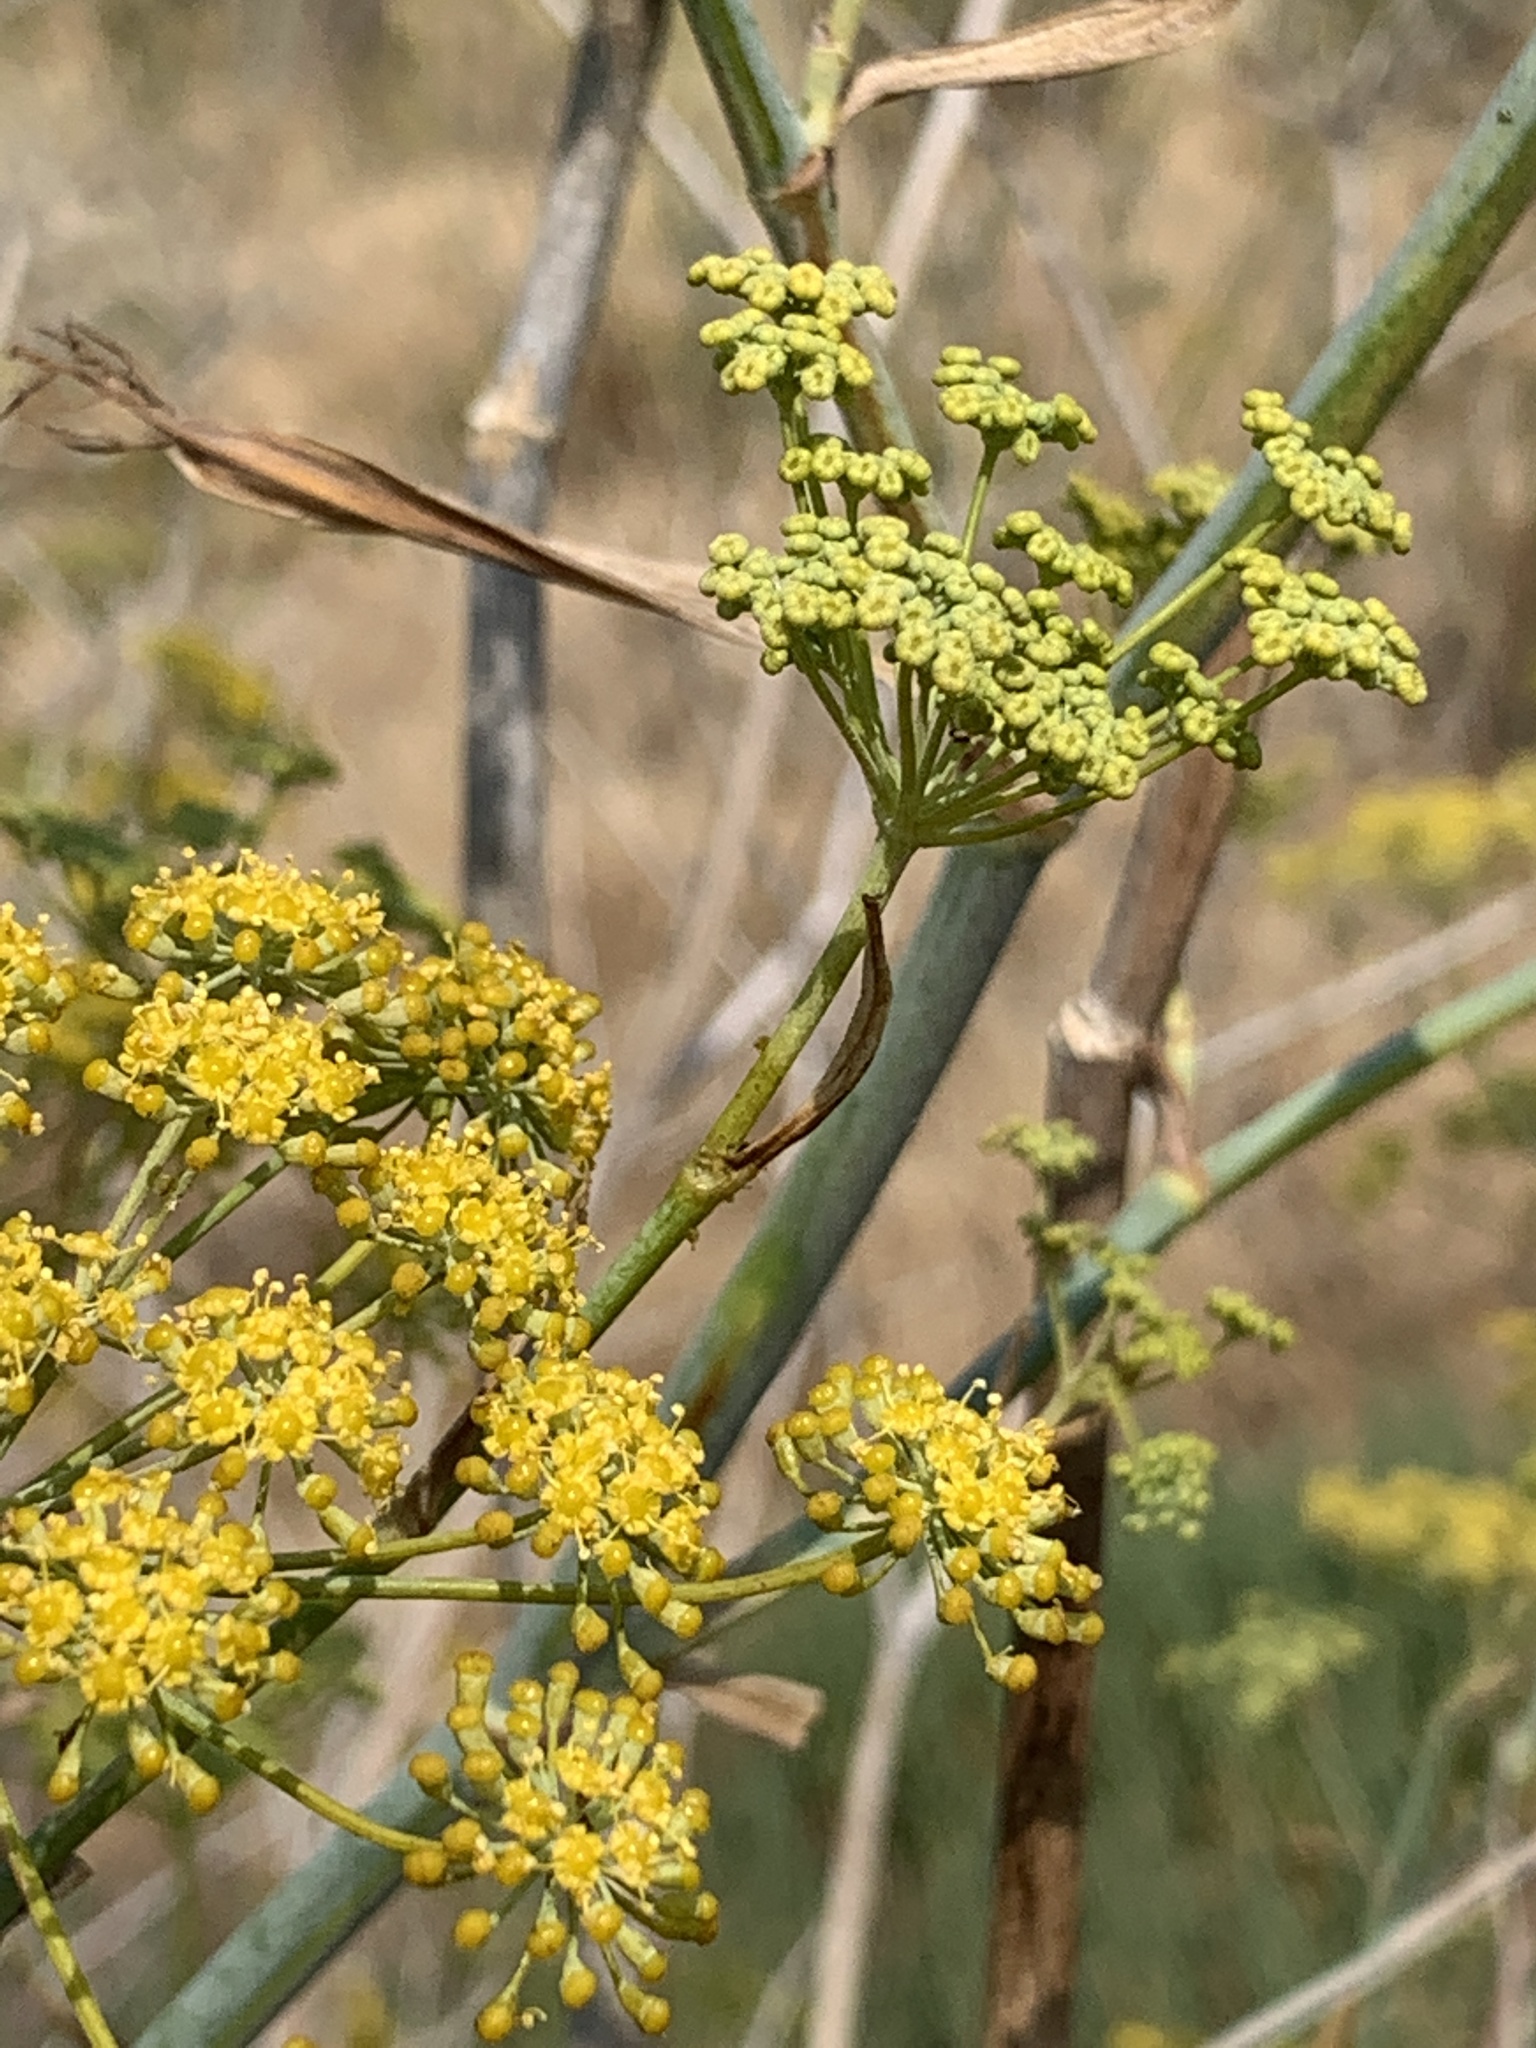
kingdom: Plantae
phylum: Tracheophyta
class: Magnoliopsida
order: Apiales
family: Apiaceae
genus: Foeniculum
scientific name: Foeniculum vulgare
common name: Fennel
